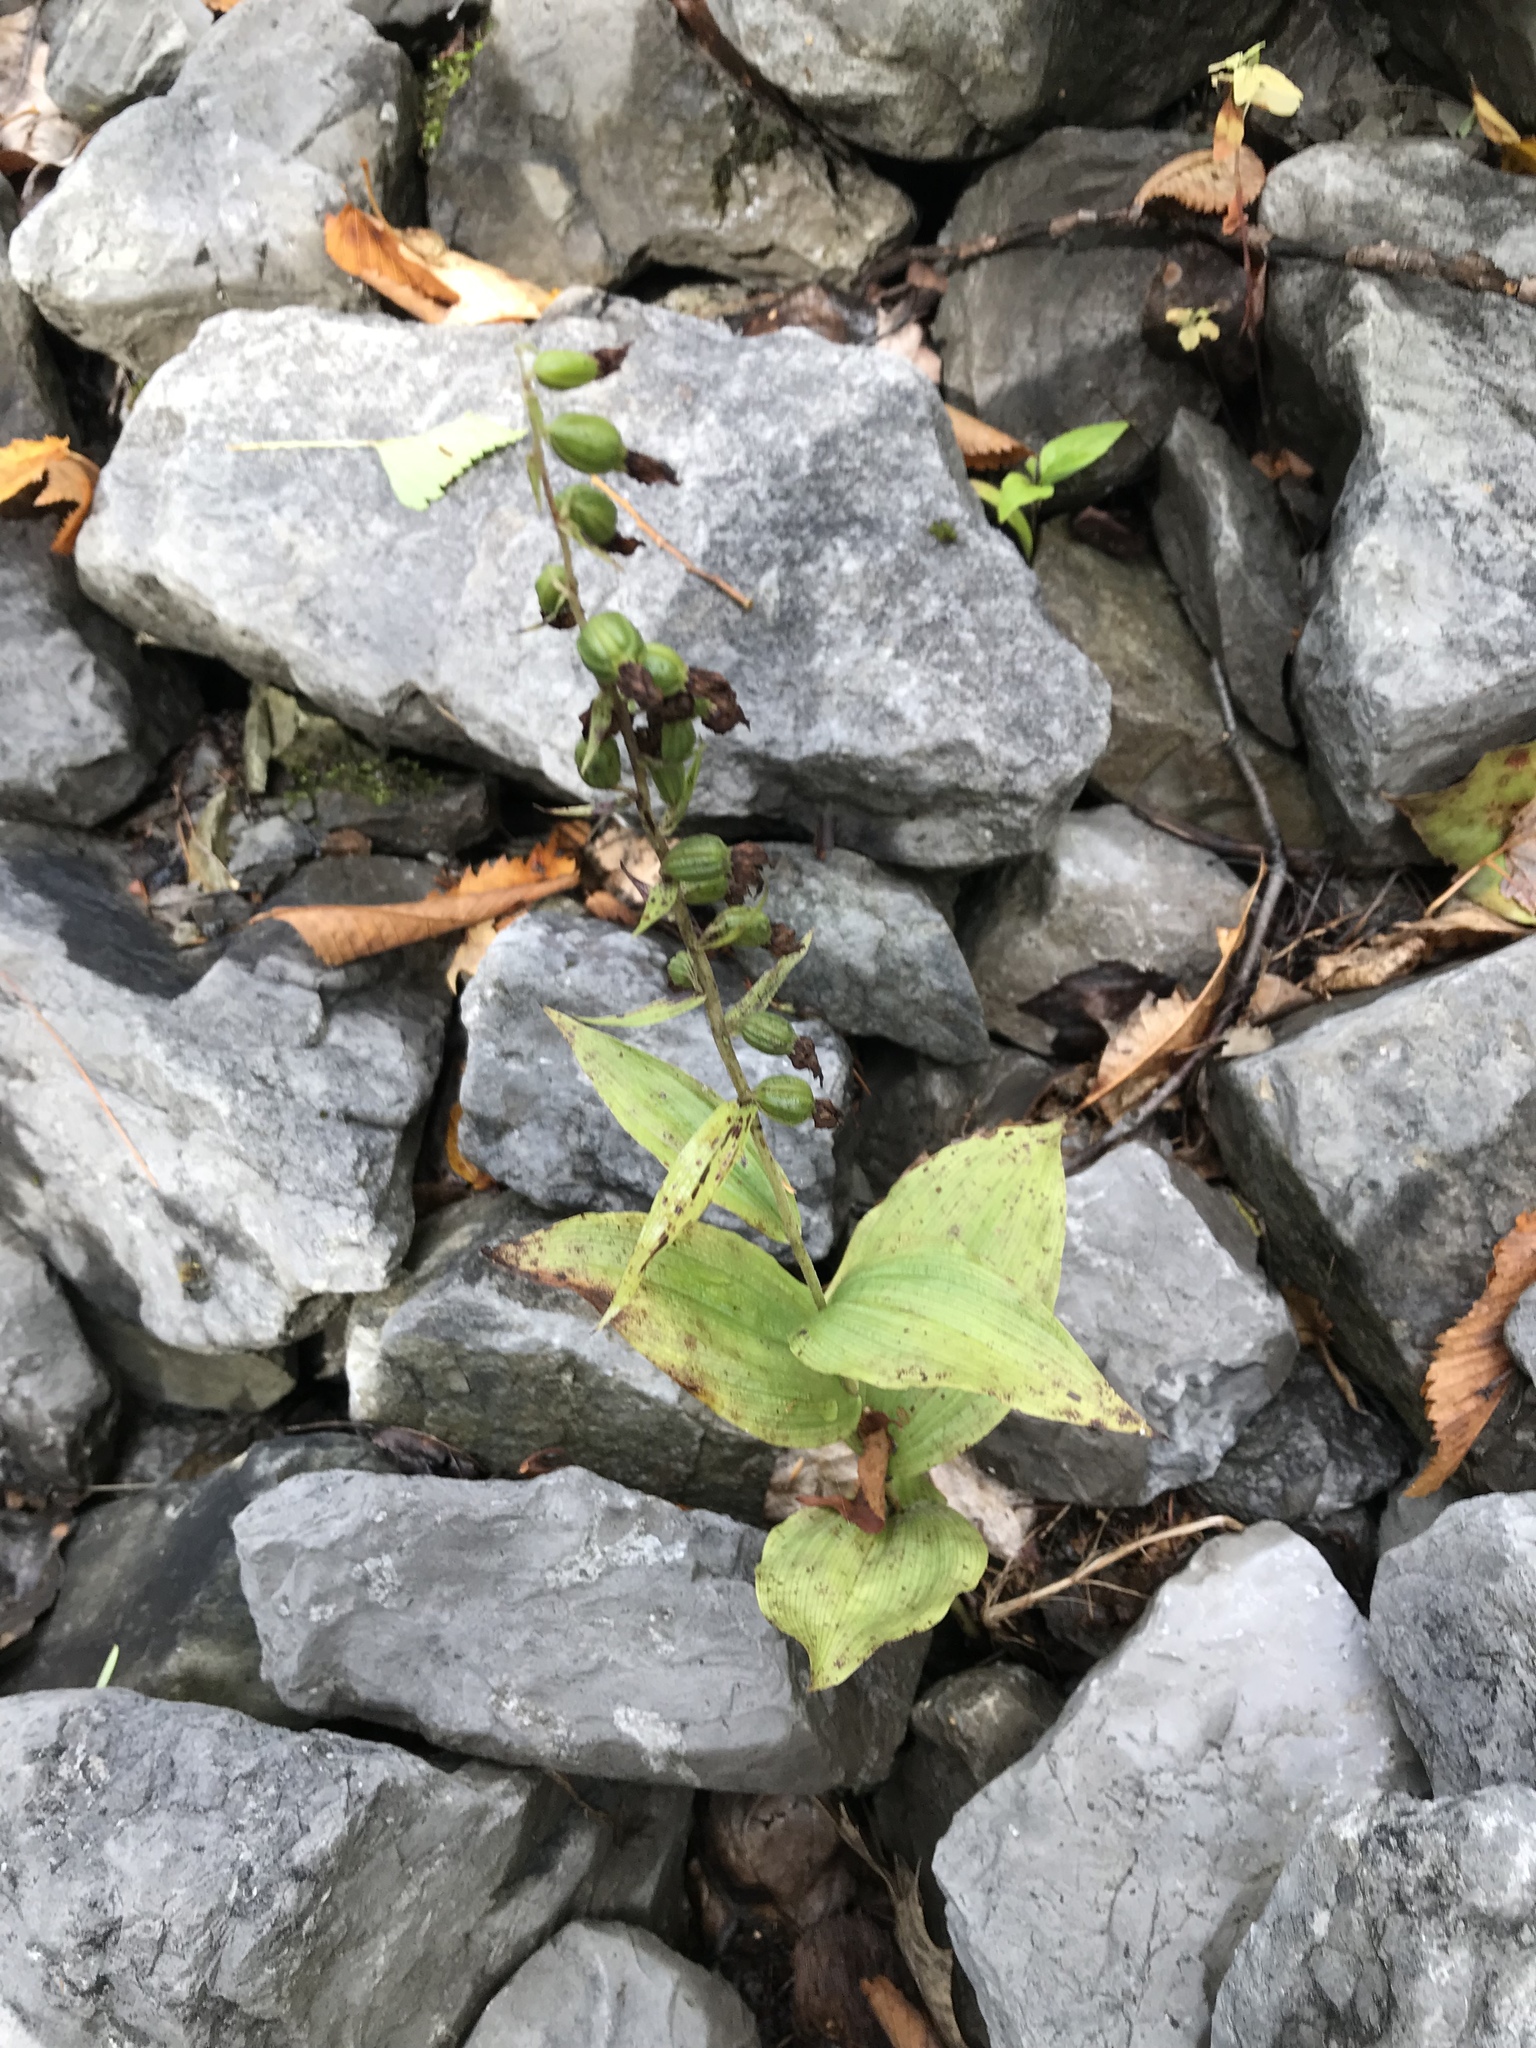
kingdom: Plantae
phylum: Tracheophyta
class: Liliopsida
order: Asparagales
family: Orchidaceae
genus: Epipactis
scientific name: Epipactis helleborine
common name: Broad-leaved helleborine
